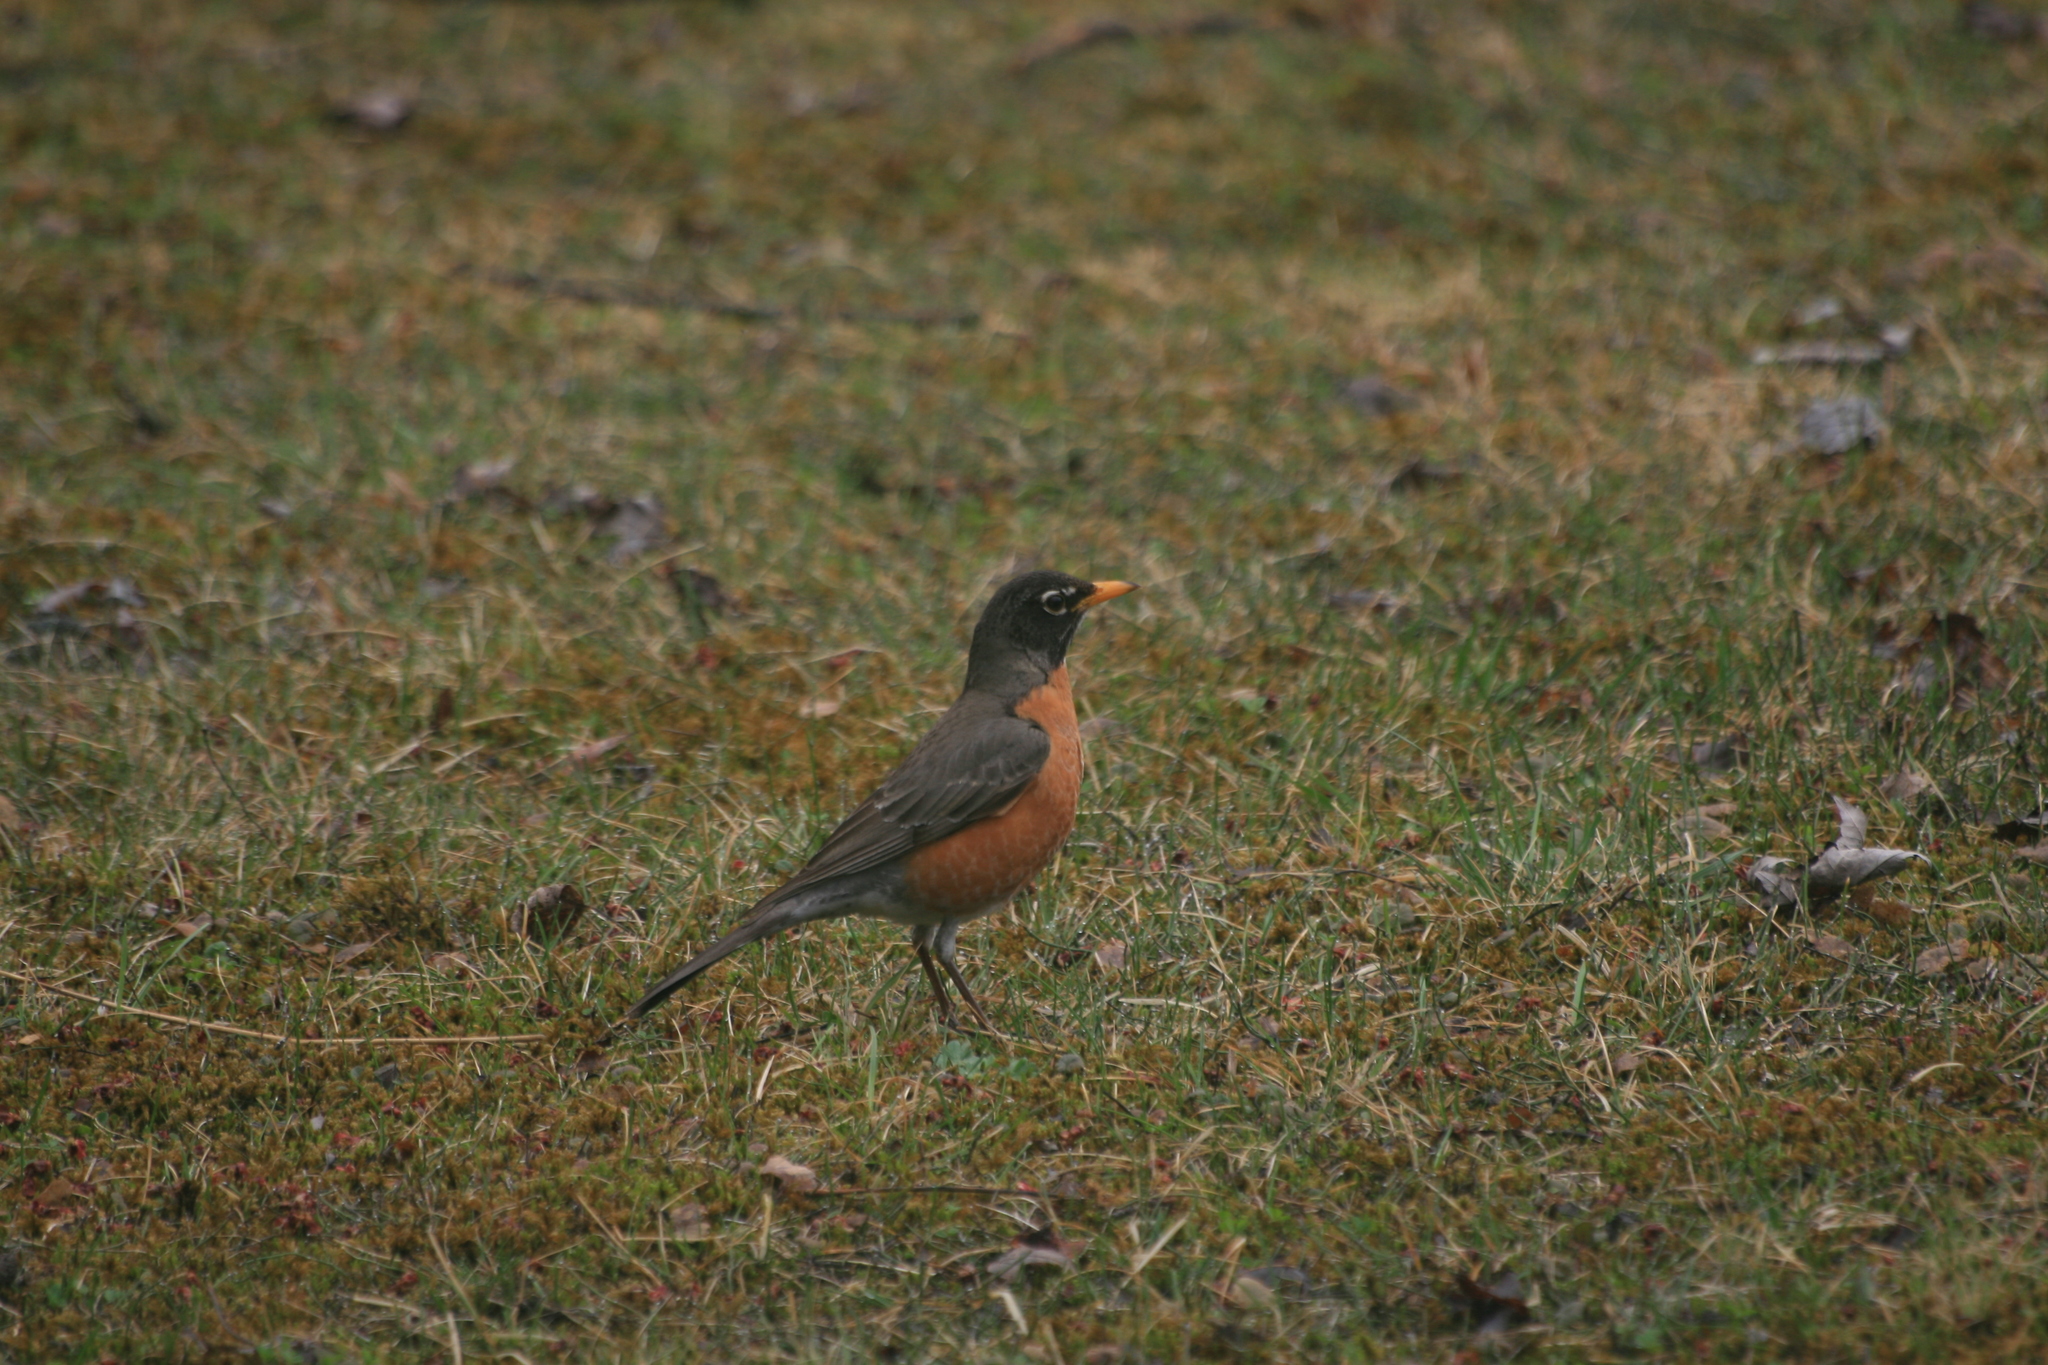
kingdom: Animalia
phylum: Chordata
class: Aves
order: Passeriformes
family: Turdidae
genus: Turdus
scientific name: Turdus migratorius
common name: American robin
